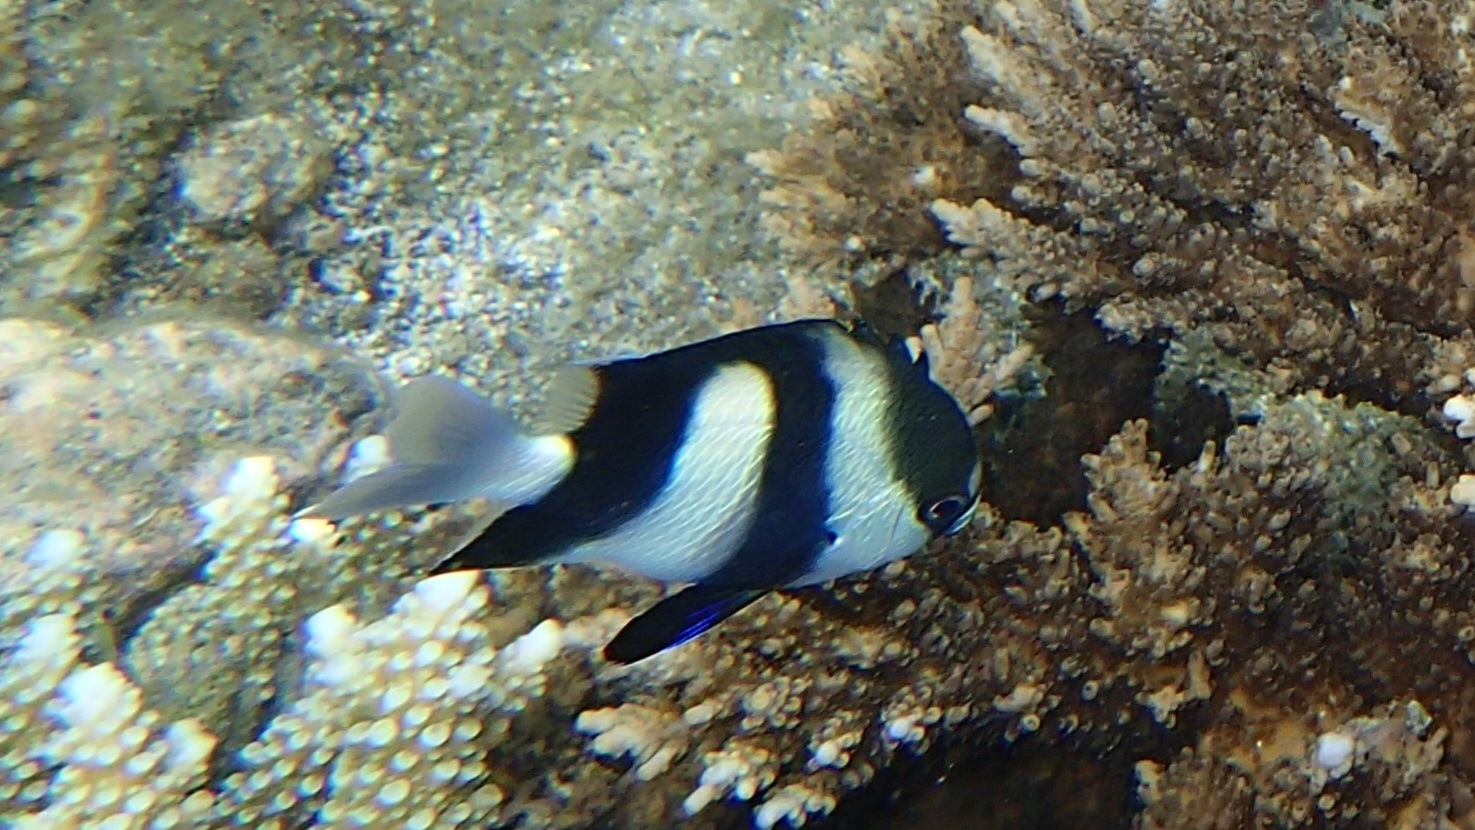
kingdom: Animalia
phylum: Chordata
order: Perciformes
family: Pomacentridae
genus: Dascyllus
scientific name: Dascyllus abudafur
